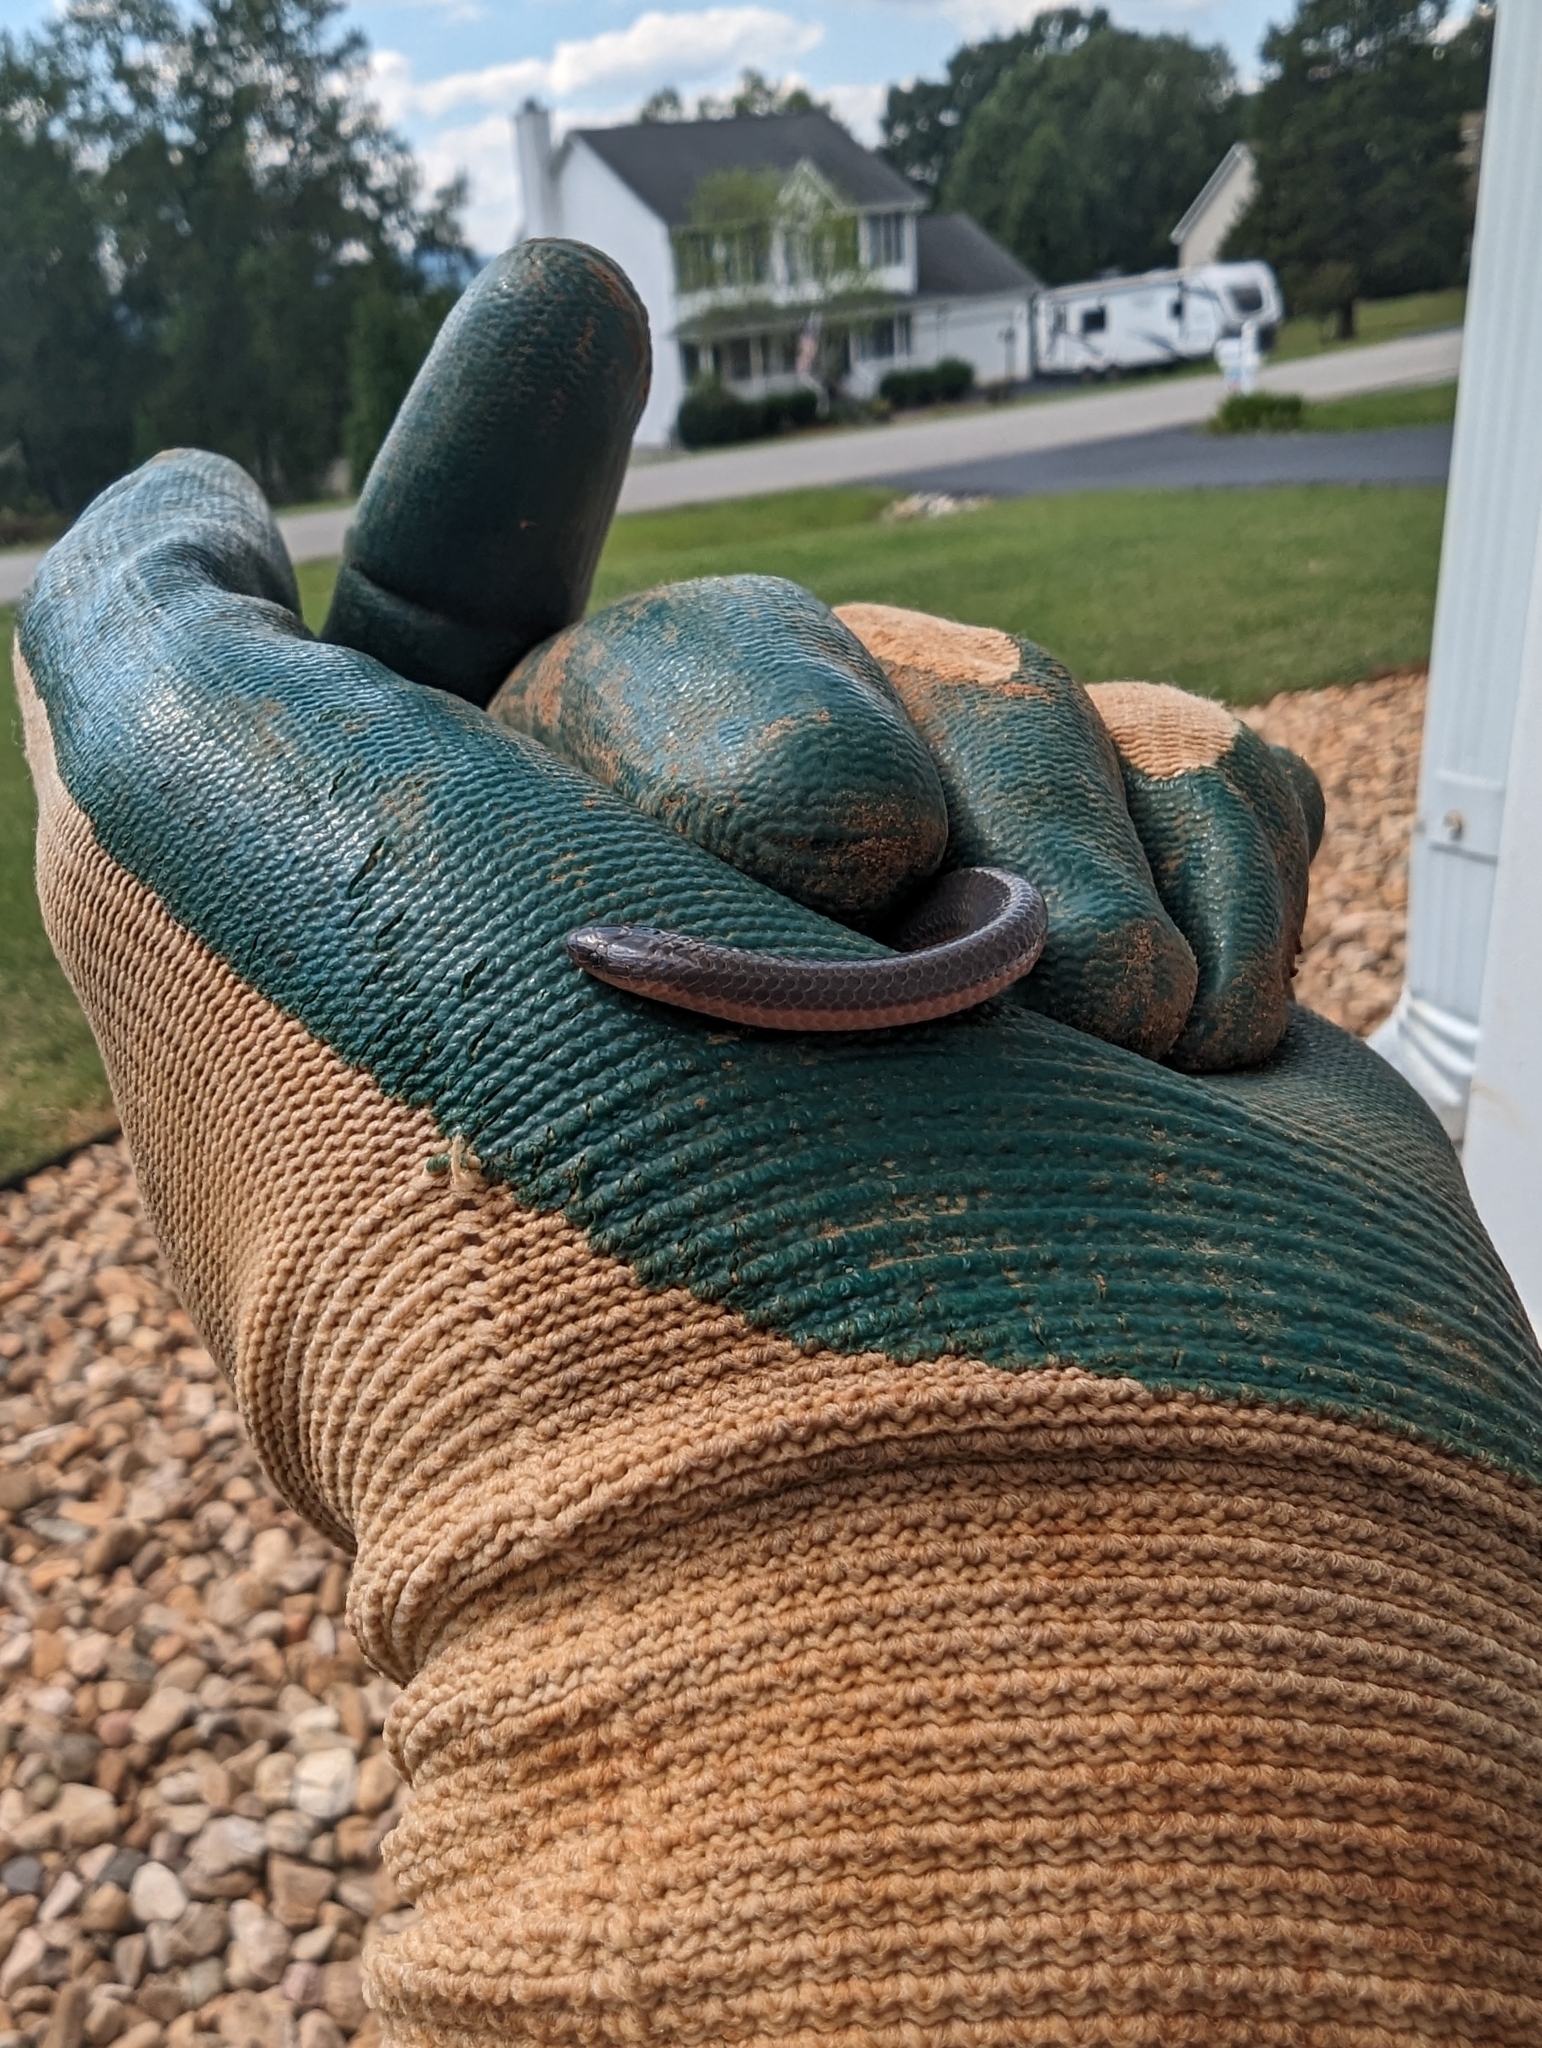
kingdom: Animalia
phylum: Chordata
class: Squamata
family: Colubridae
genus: Carphophis
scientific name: Carphophis amoenus
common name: Eastern worm snake
